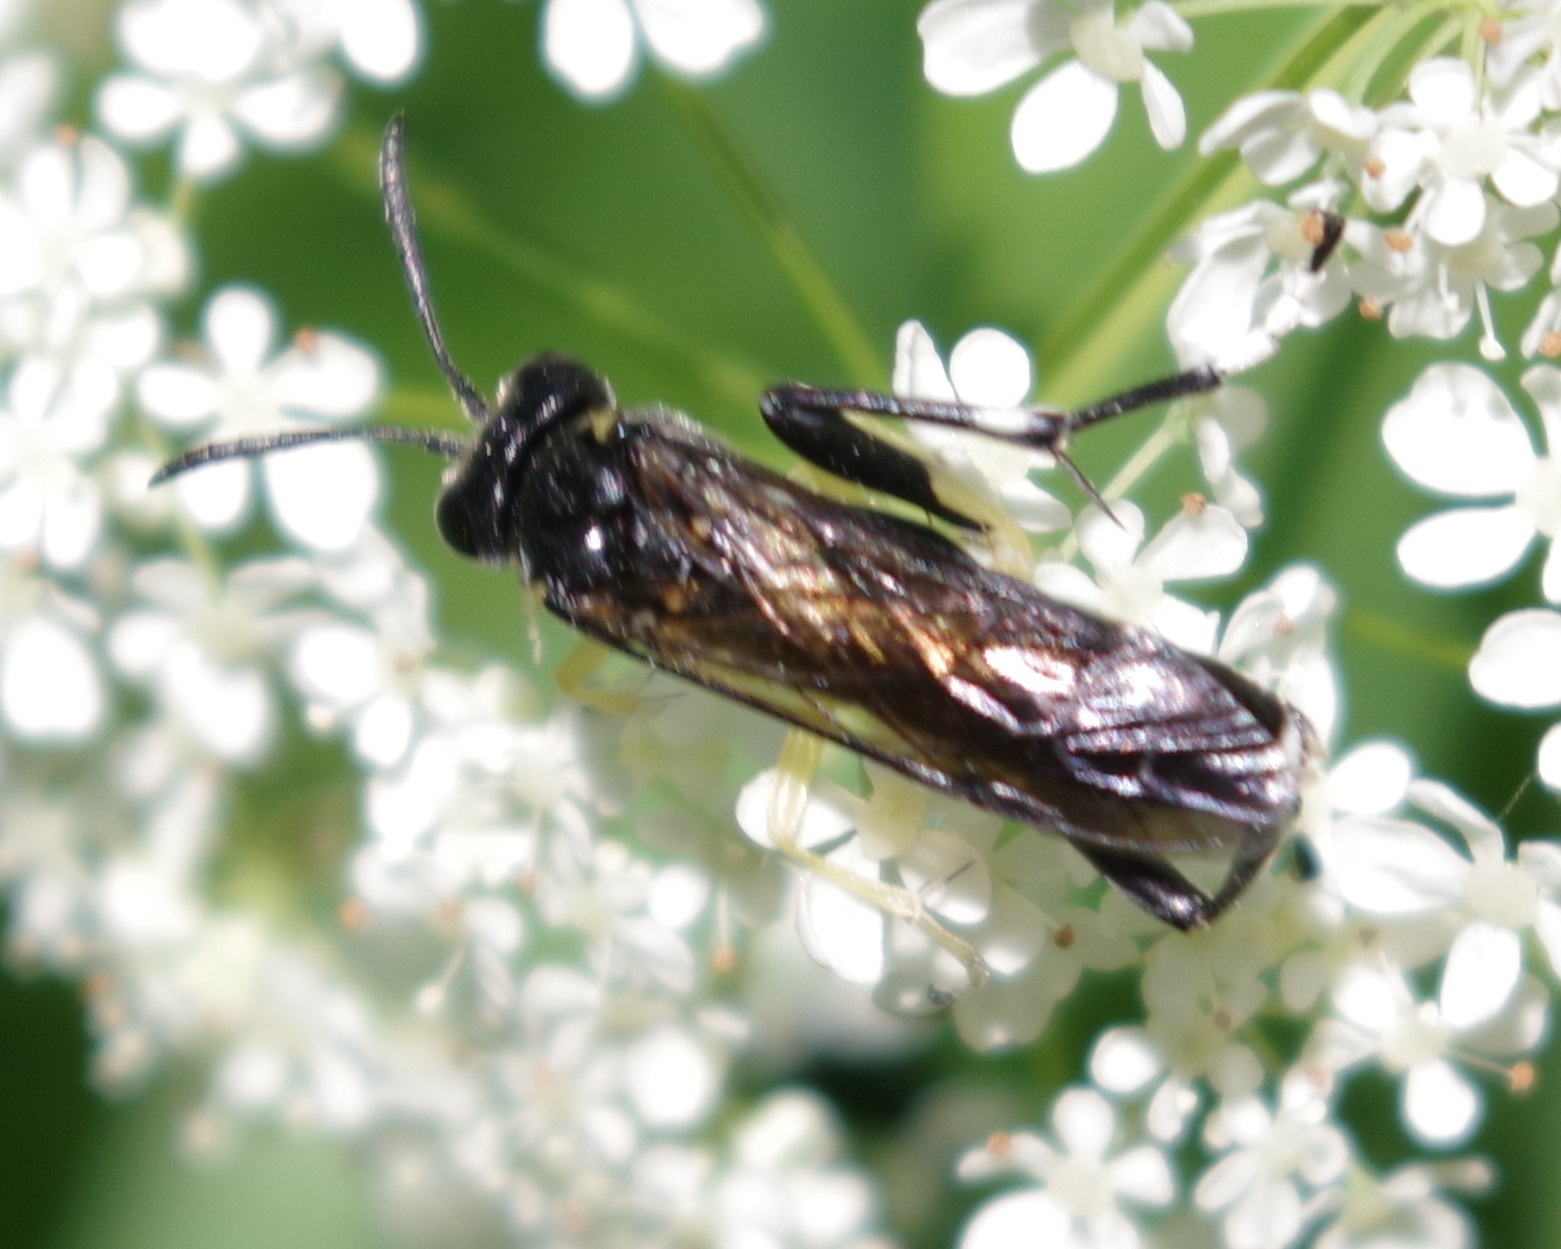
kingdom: Animalia
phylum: Arthropoda
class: Insecta
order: Hymenoptera
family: Tenthredinidae
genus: Macrophya
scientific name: Macrophya montana
